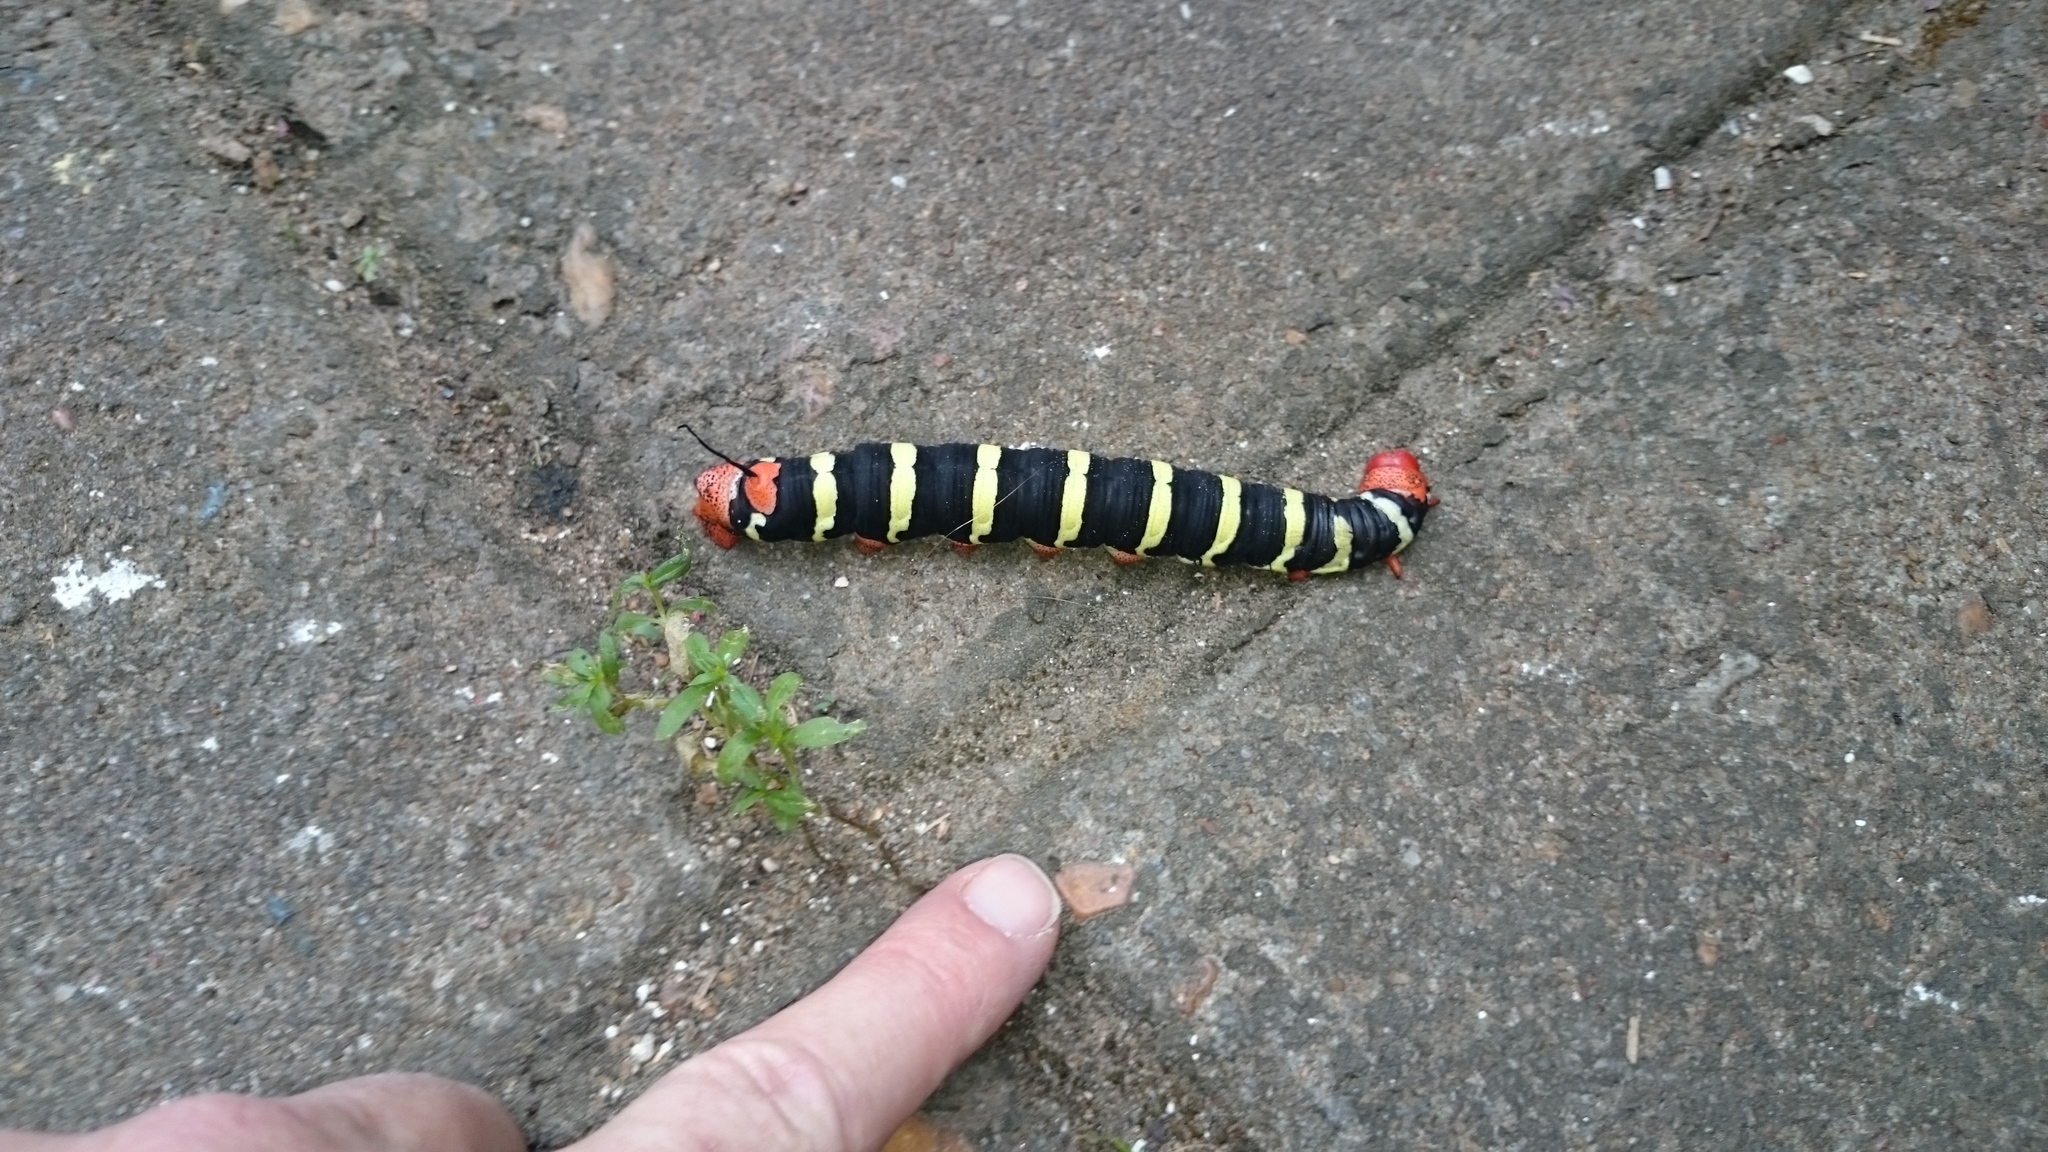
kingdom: Animalia
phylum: Arthropoda
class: Insecta
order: Lepidoptera
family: Sphingidae
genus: Pseudosphinx
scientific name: Pseudosphinx tetrio
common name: Tetrio sphinx
